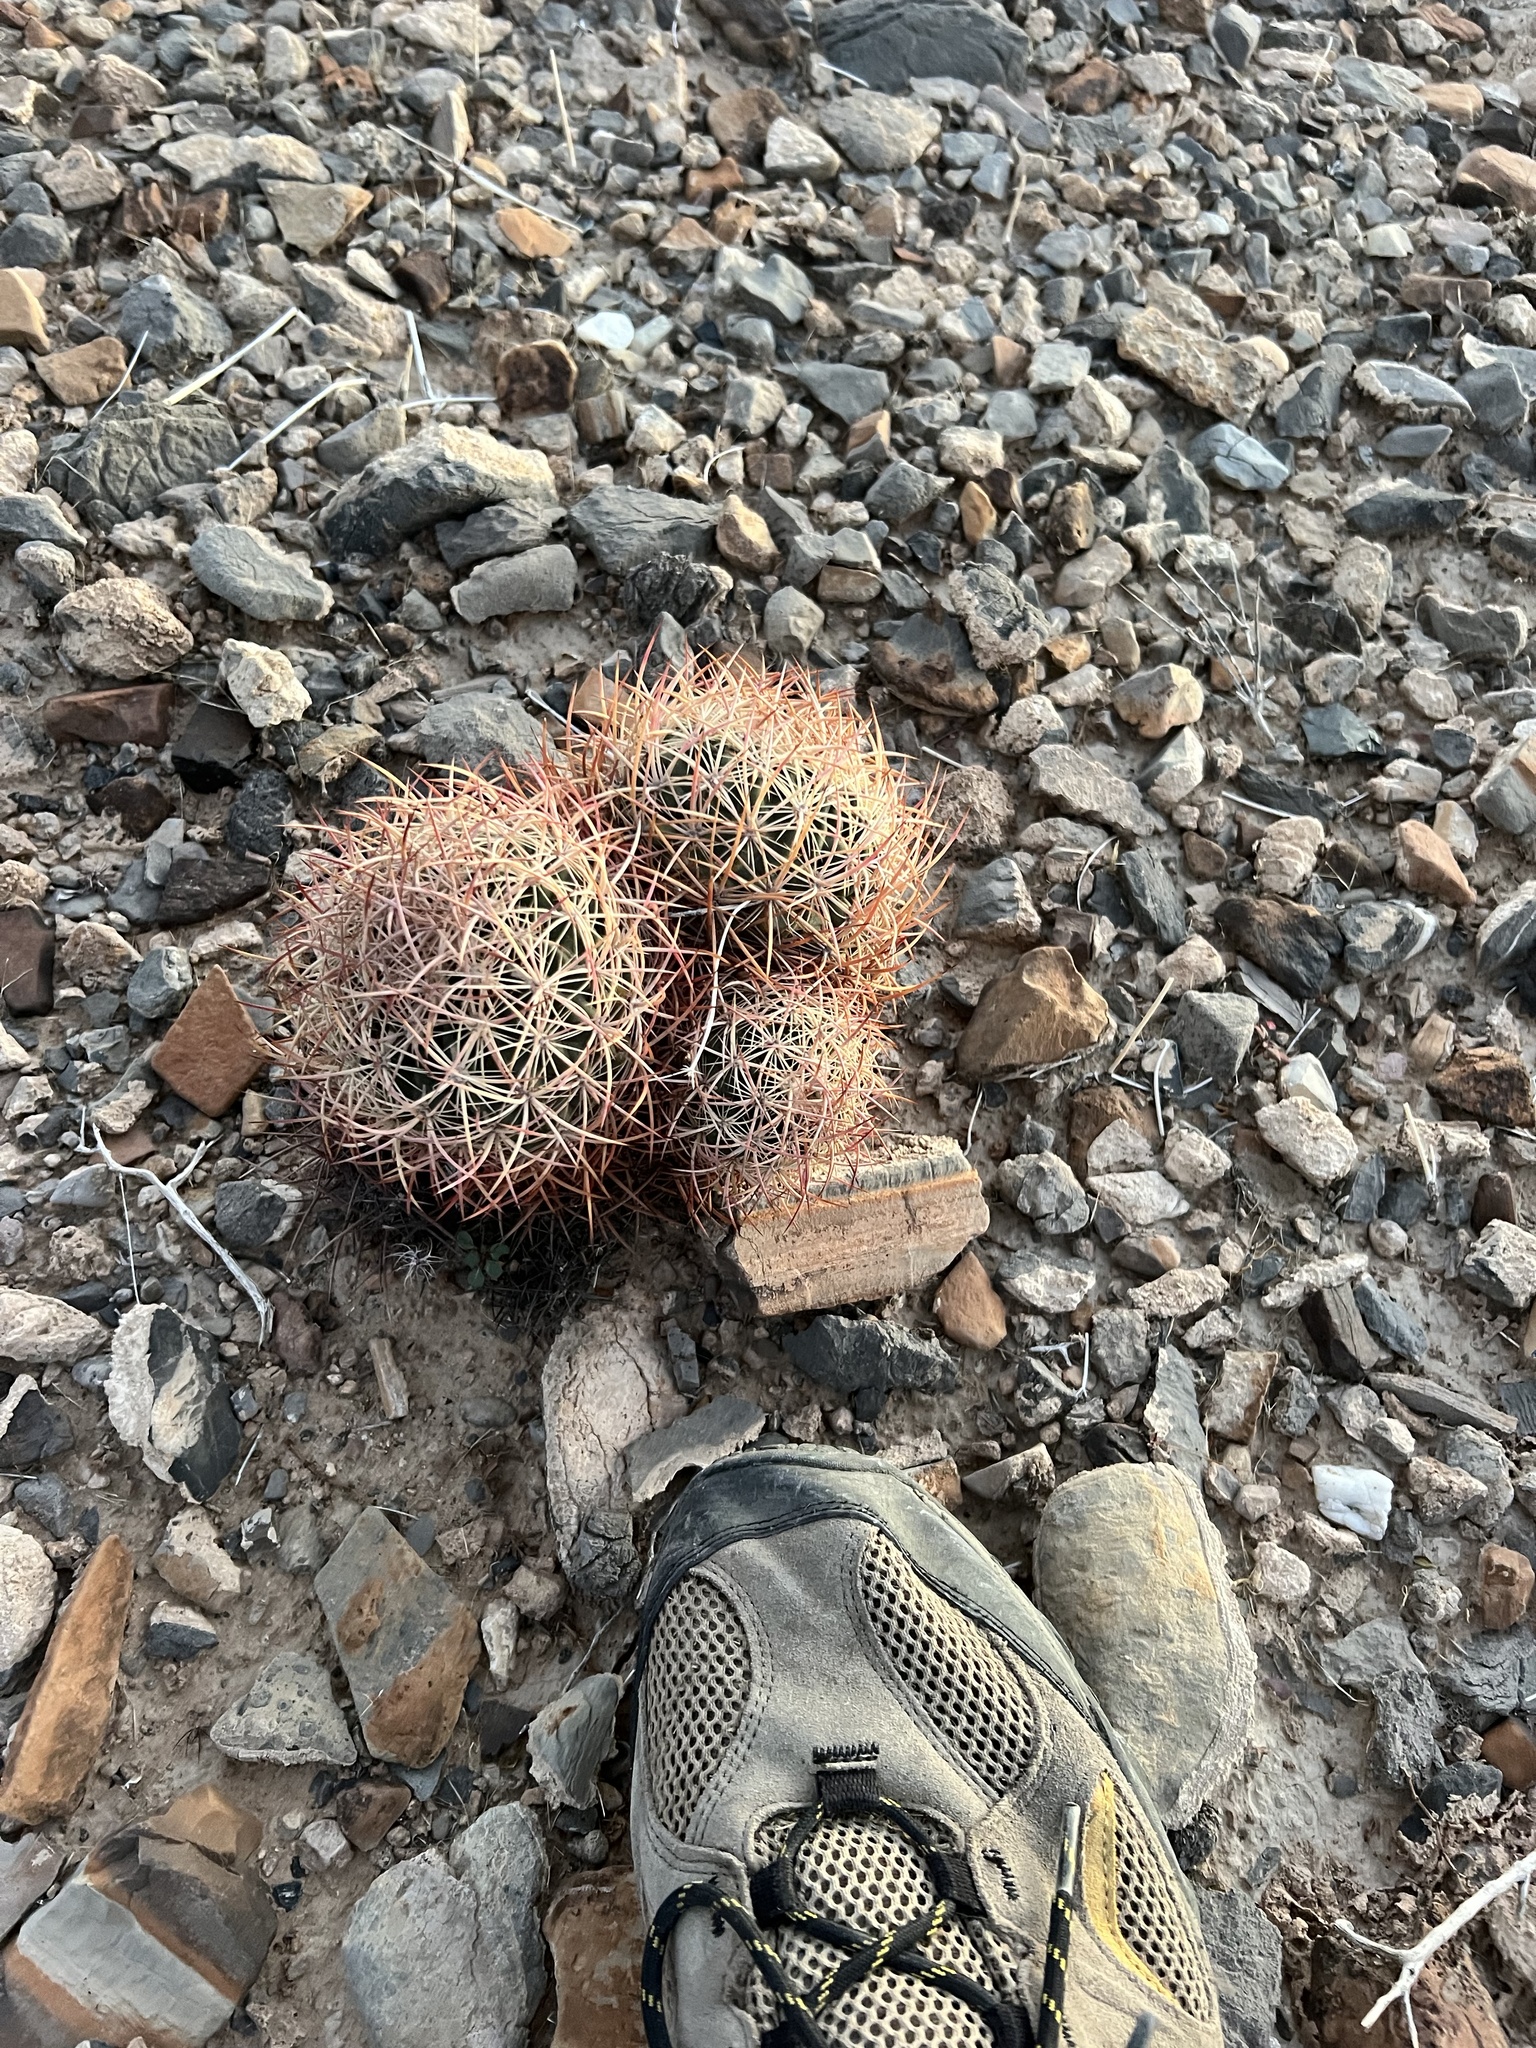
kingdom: Plantae
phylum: Tracheophyta
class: Magnoliopsida
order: Caryophyllales
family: Cactaceae
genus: Sclerocactus
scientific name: Sclerocactus johnsonii
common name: Eight-spine fishhook cactus
